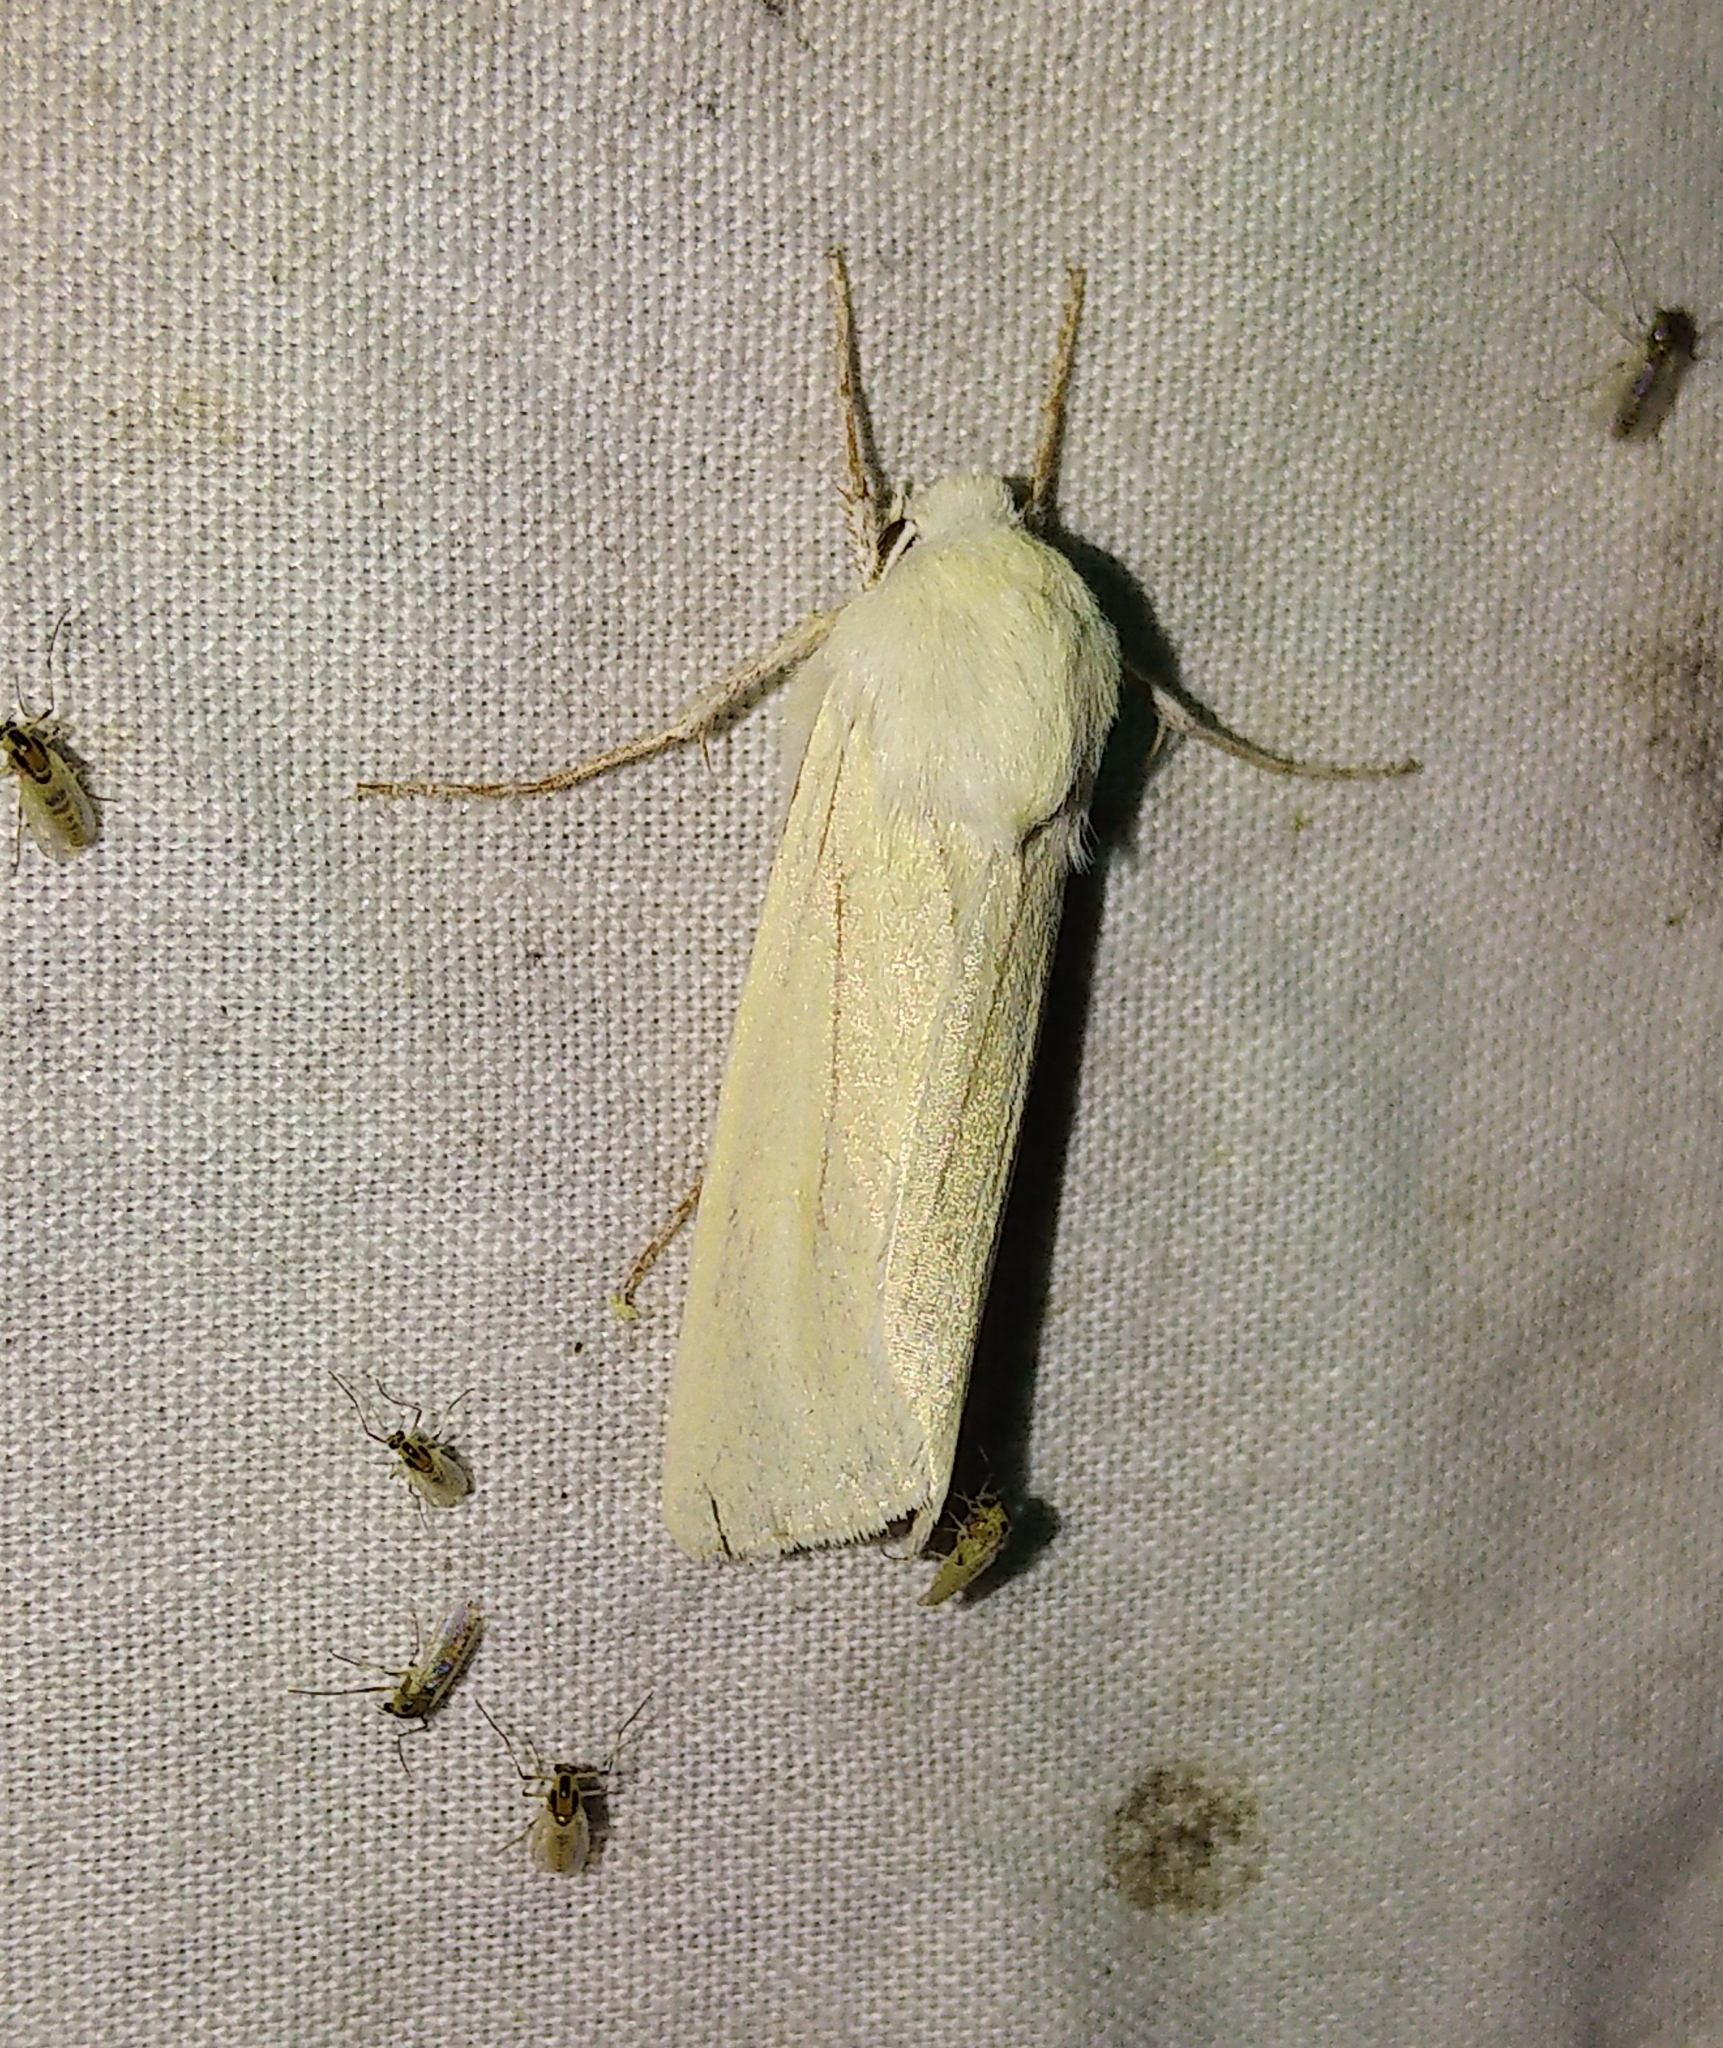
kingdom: Animalia
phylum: Arthropoda
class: Insecta
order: Lepidoptera
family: Noctuidae
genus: Copablepharon
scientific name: Copablepharon viridisparsa
